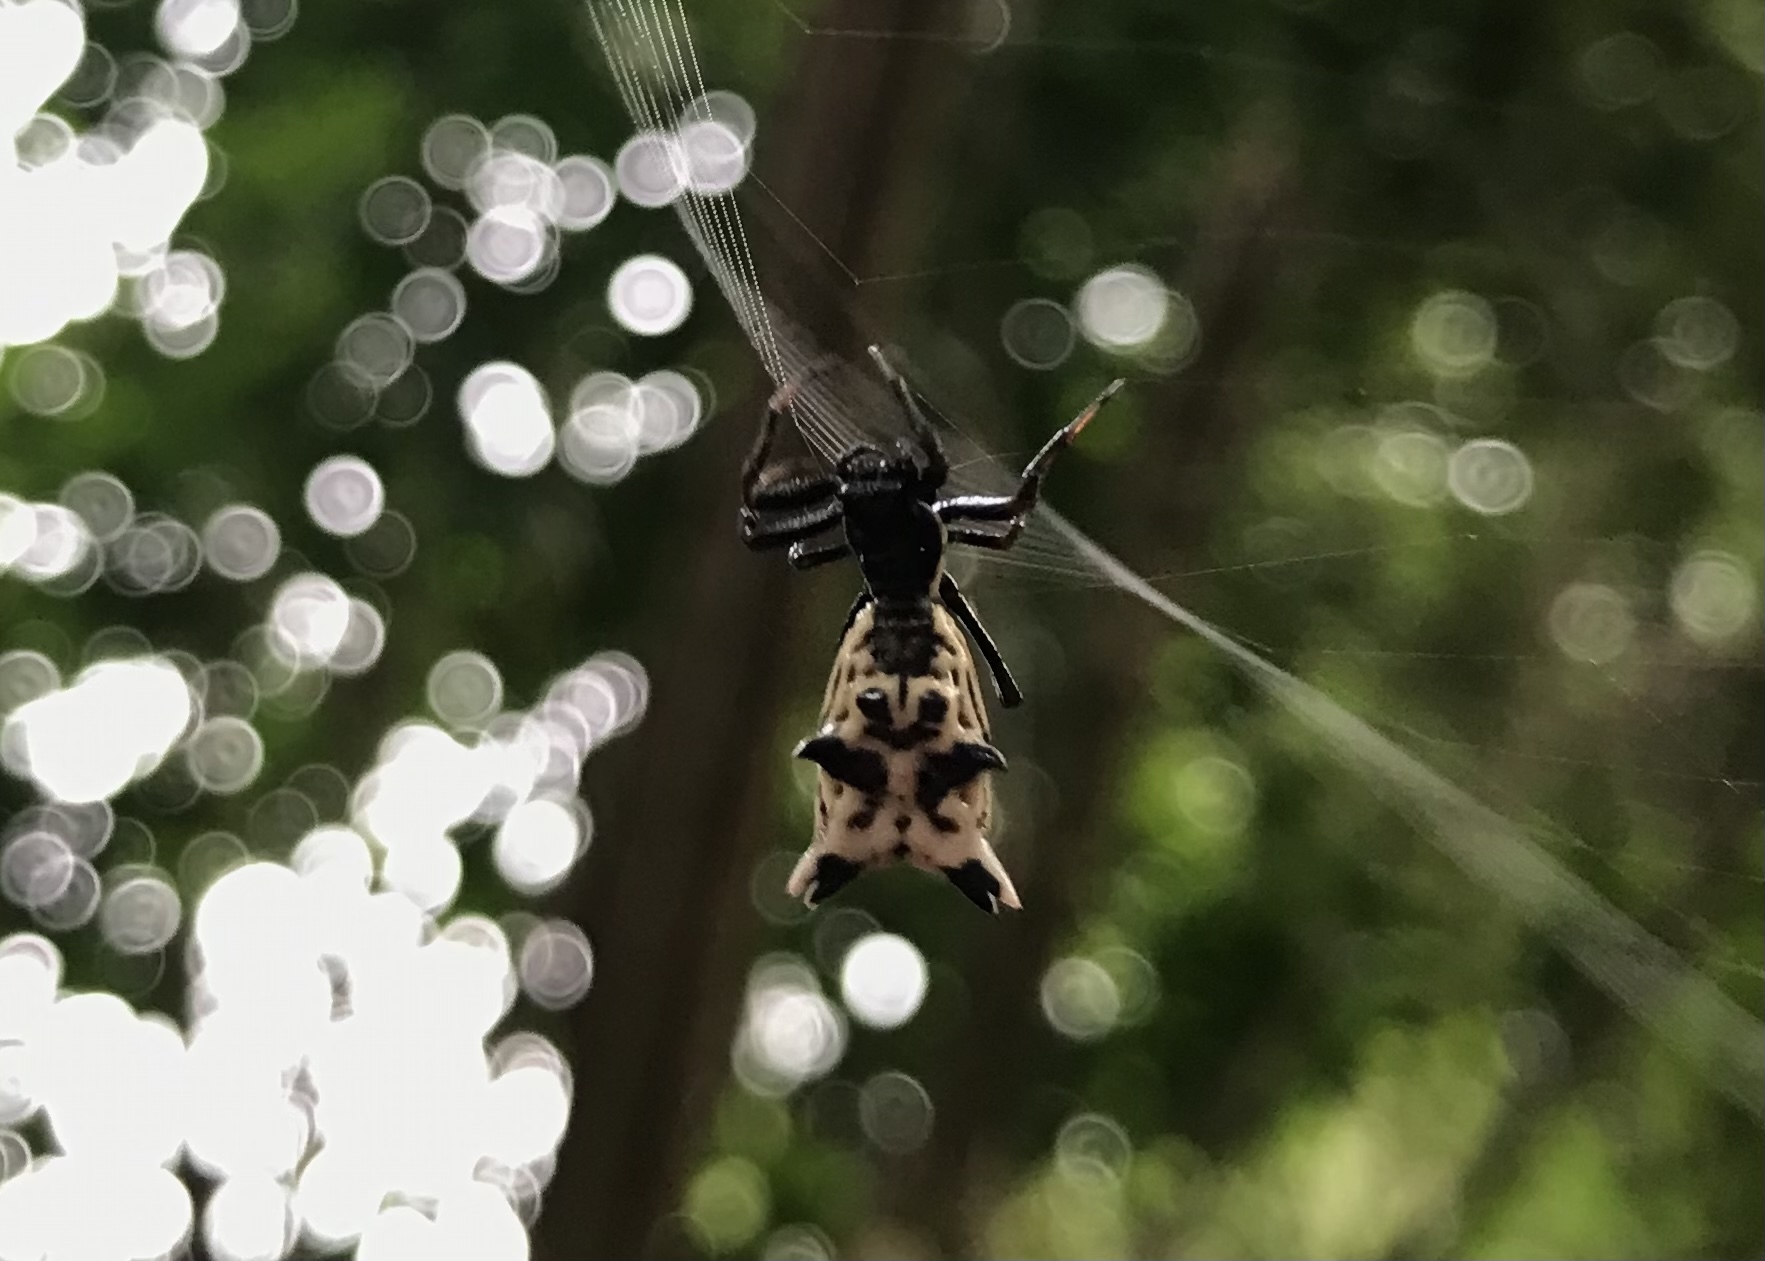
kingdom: Animalia
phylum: Arthropoda
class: Arachnida
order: Araneae
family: Araneidae
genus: Micrathena
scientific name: Micrathena gracilis
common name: Orb weavers
